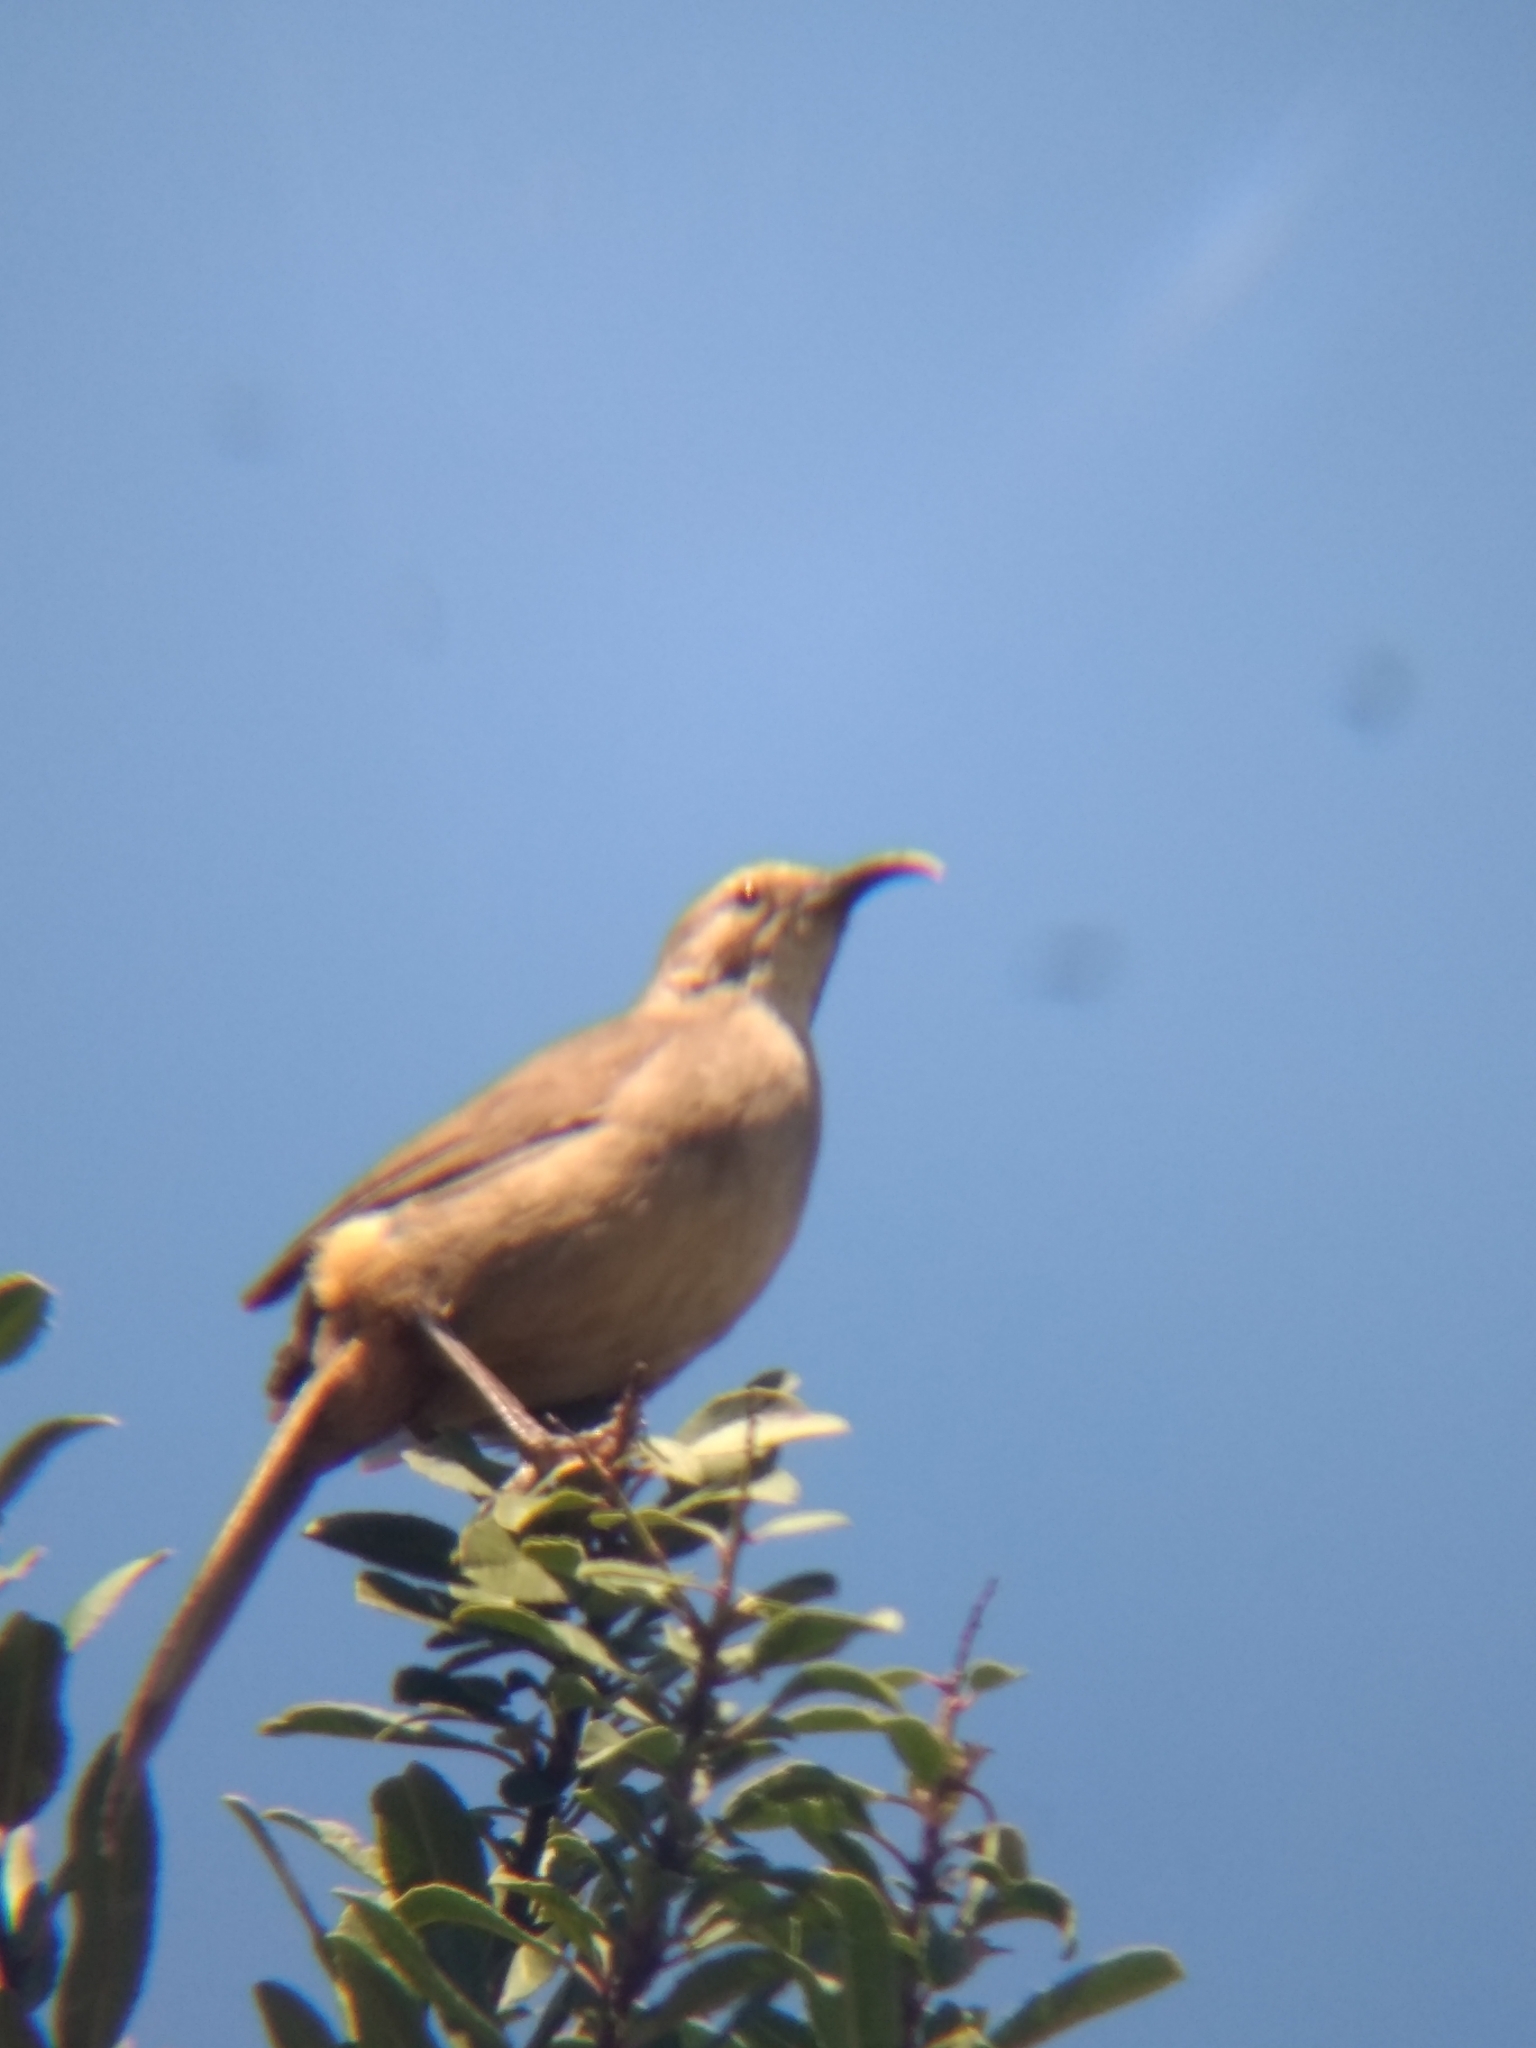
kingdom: Animalia
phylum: Chordata
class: Aves
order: Passeriformes
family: Mimidae
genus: Toxostoma
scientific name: Toxostoma redivivum
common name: California thrasher
